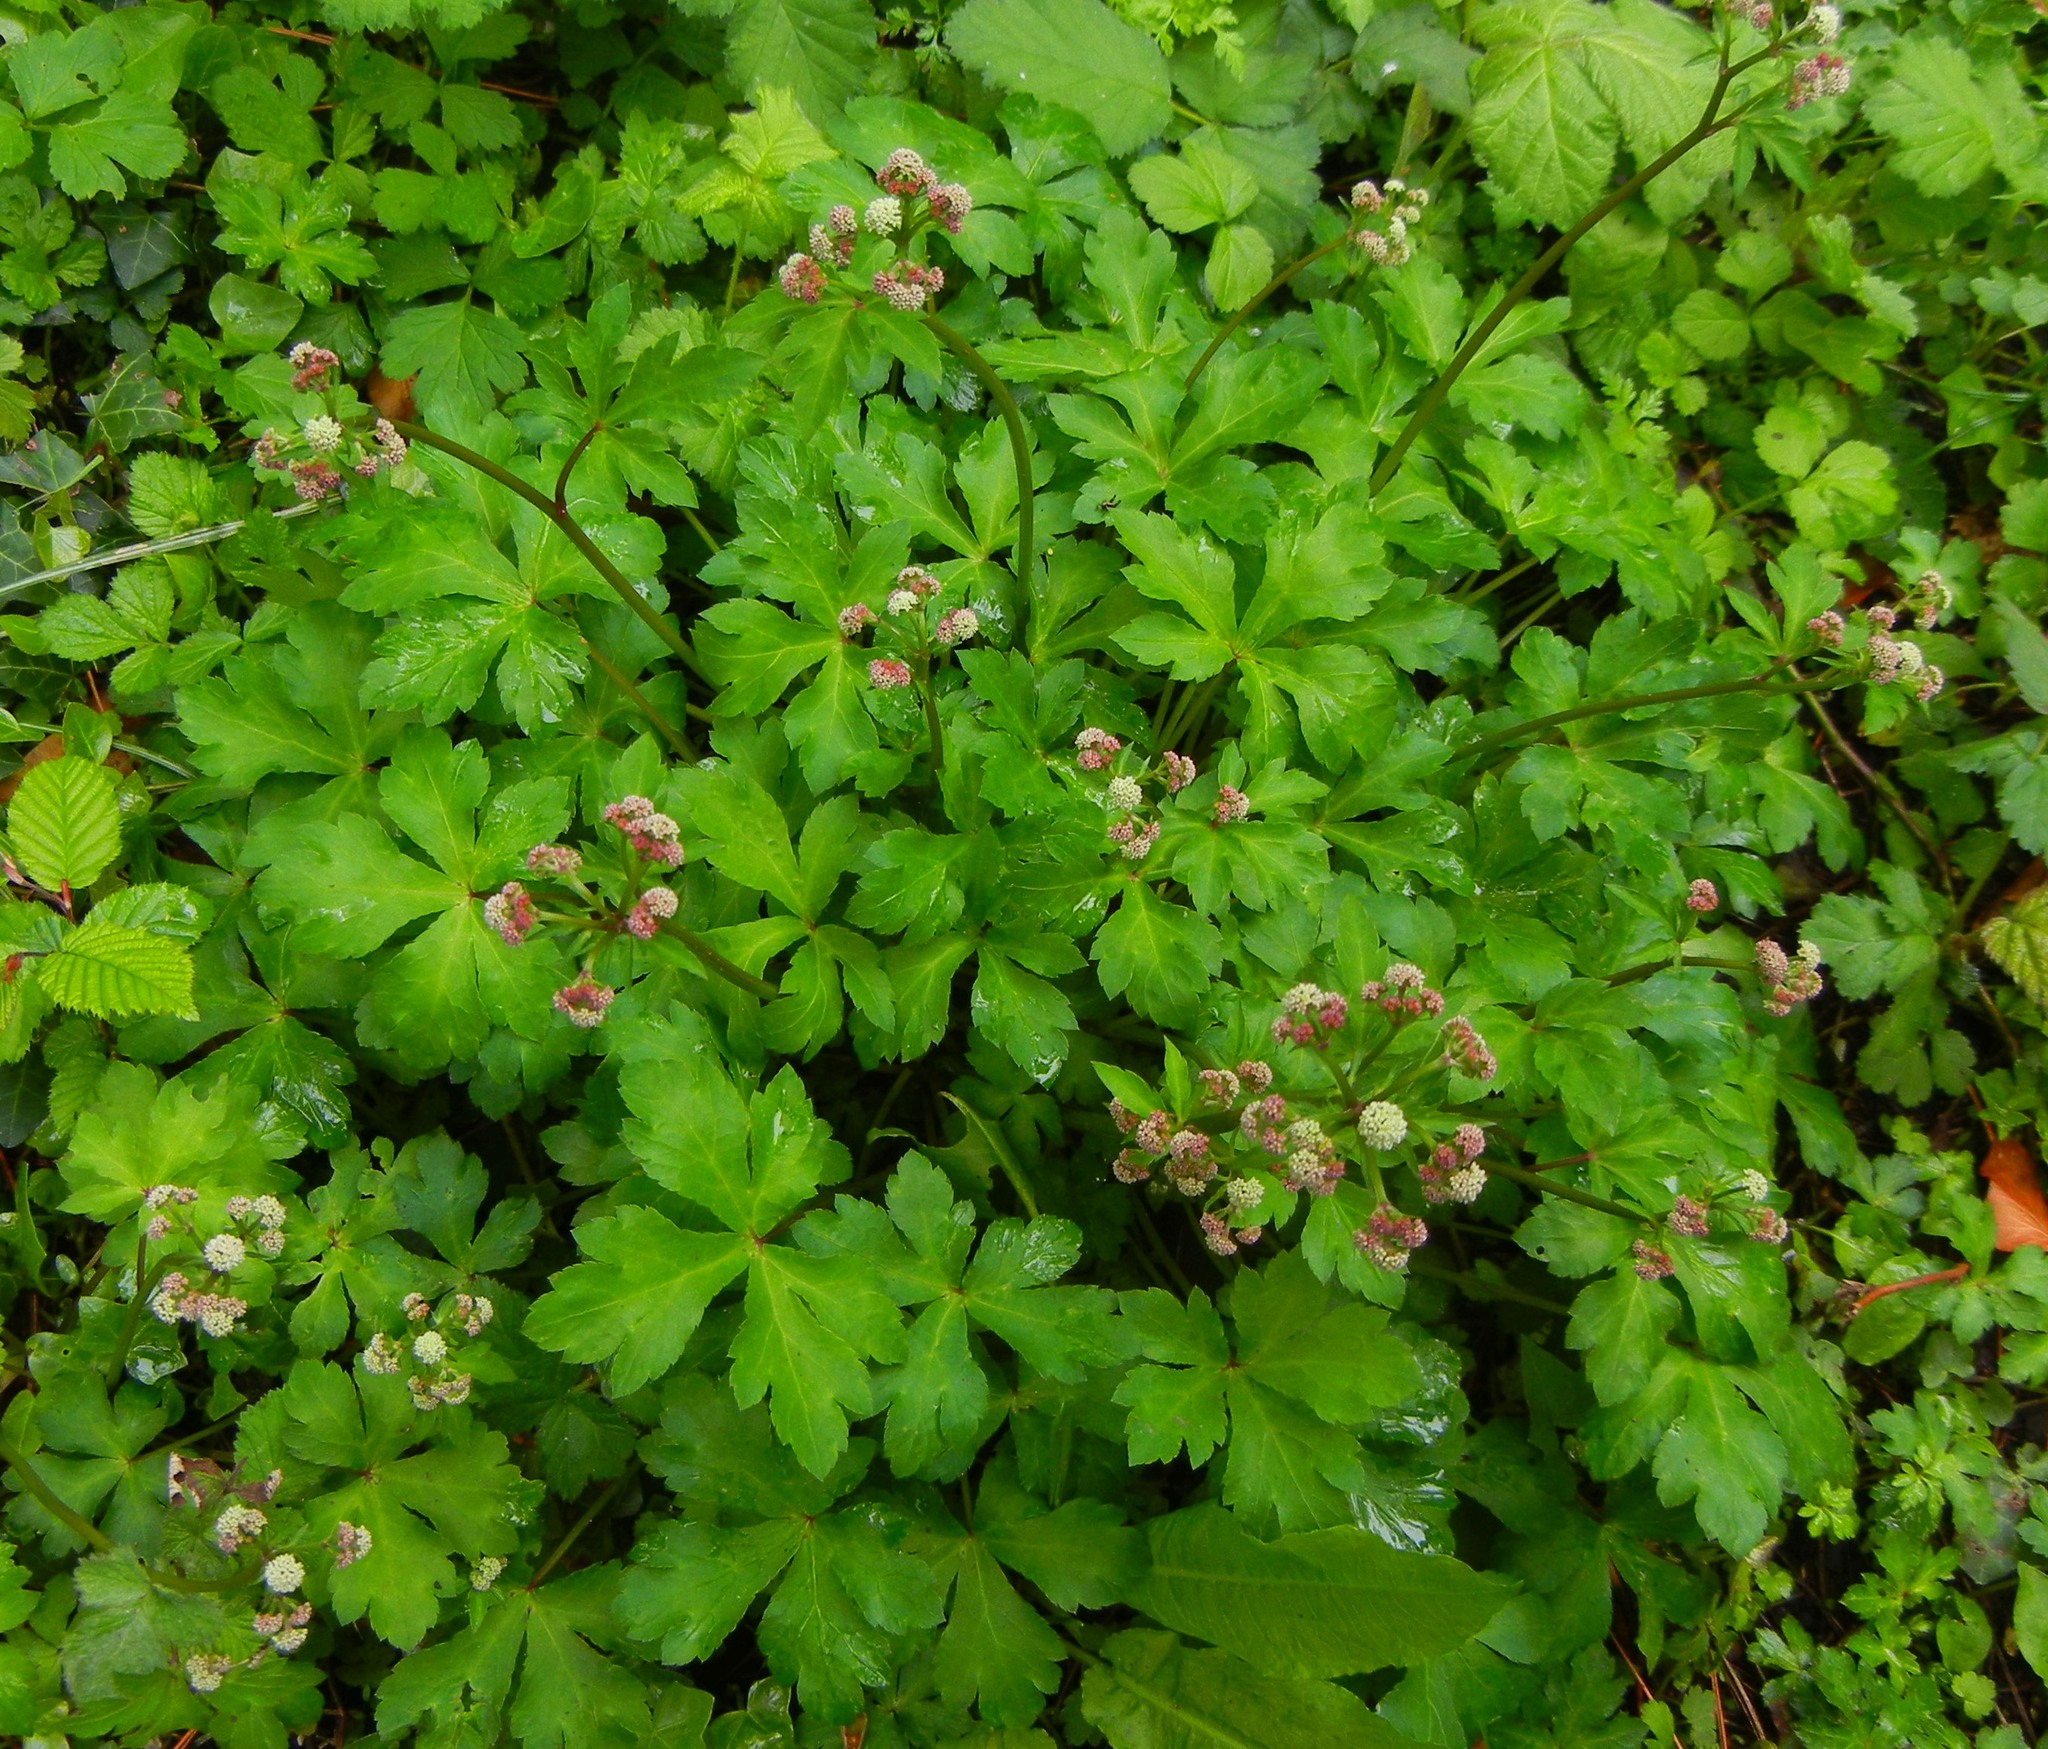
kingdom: Plantae
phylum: Tracheophyta
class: Magnoliopsida
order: Apiales
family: Apiaceae
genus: Sanicula
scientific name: Sanicula europaea
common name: Sanicle
